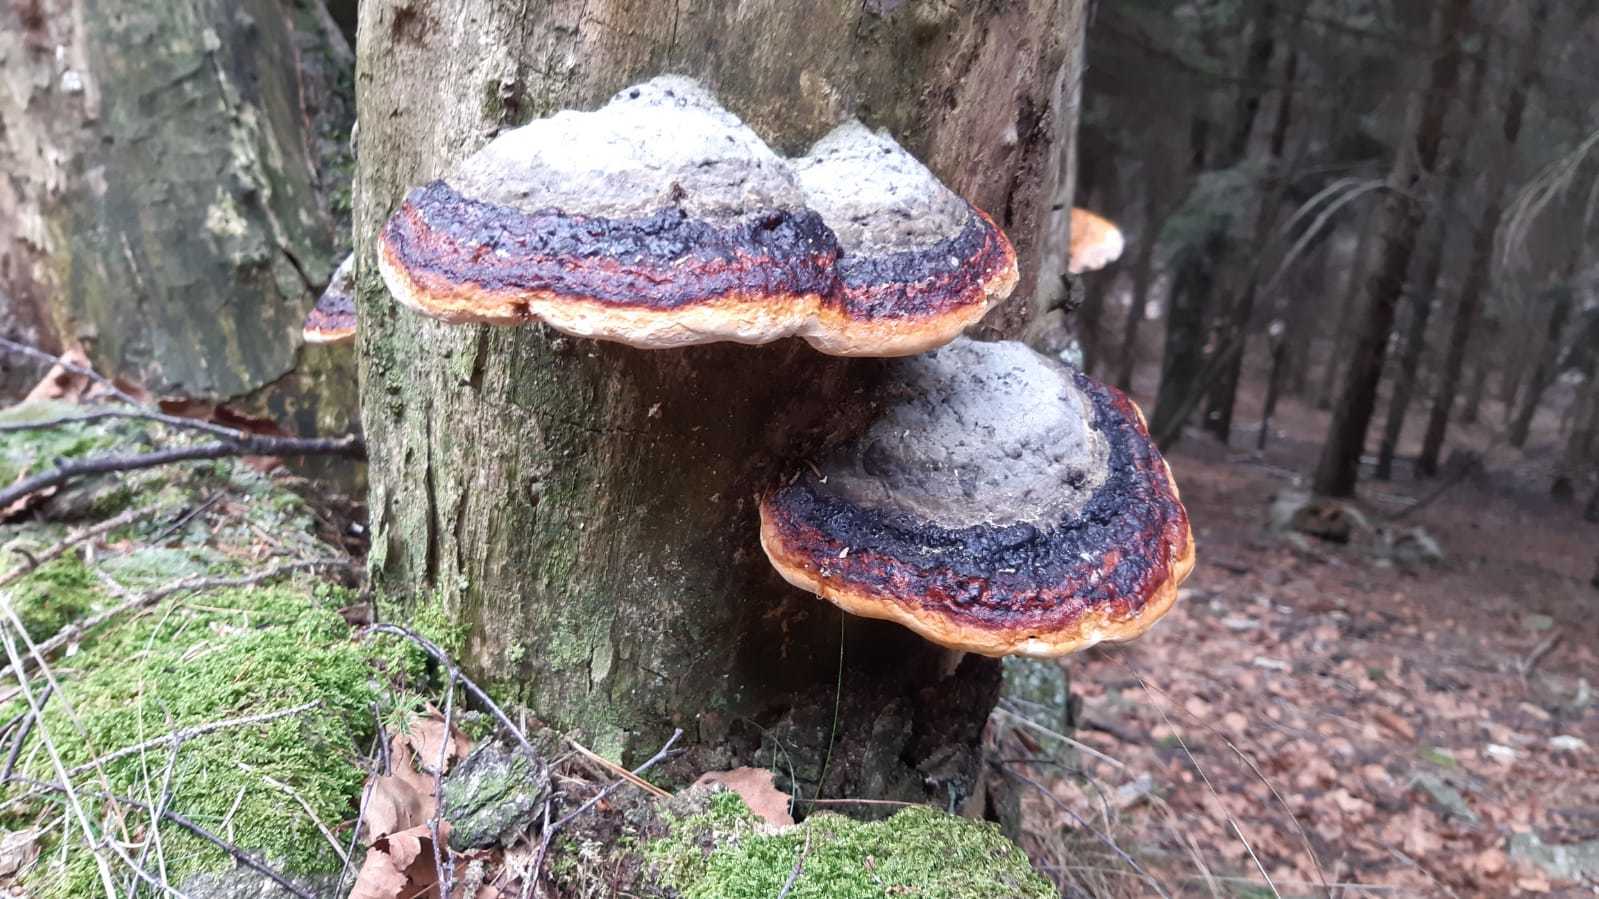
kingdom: Fungi
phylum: Basidiomycota
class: Agaricomycetes
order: Polyporales
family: Fomitopsidaceae
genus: Fomitopsis
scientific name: Fomitopsis pinicola
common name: Red-belted bracket
